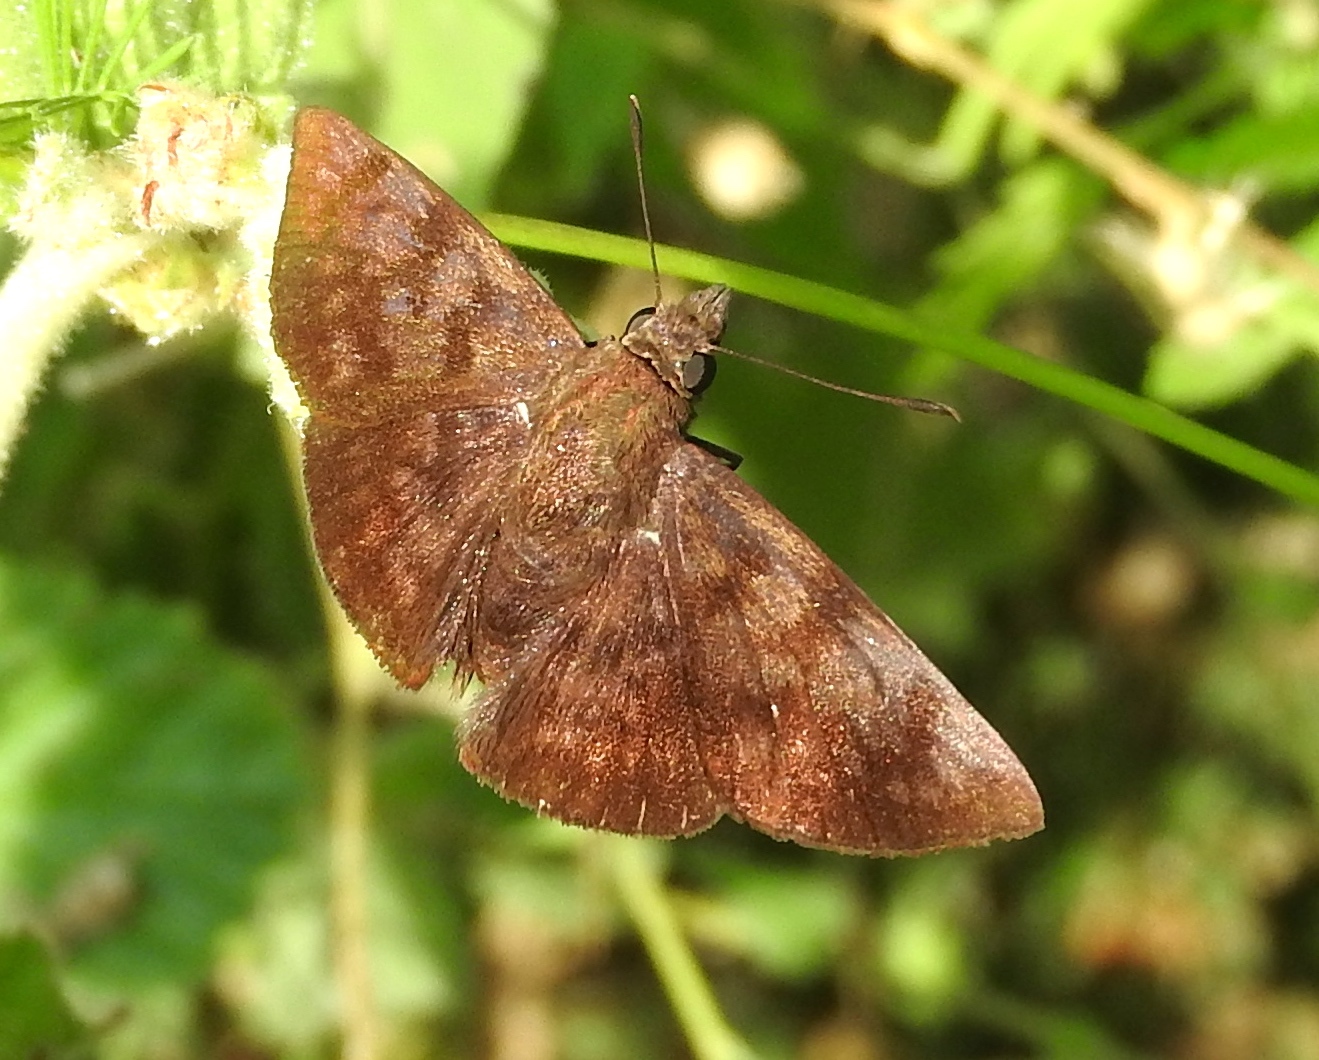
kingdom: Animalia
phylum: Arthropoda
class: Insecta
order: Lepidoptera
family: Hesperiidae
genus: Pellicia
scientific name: Pellicia costimacula
